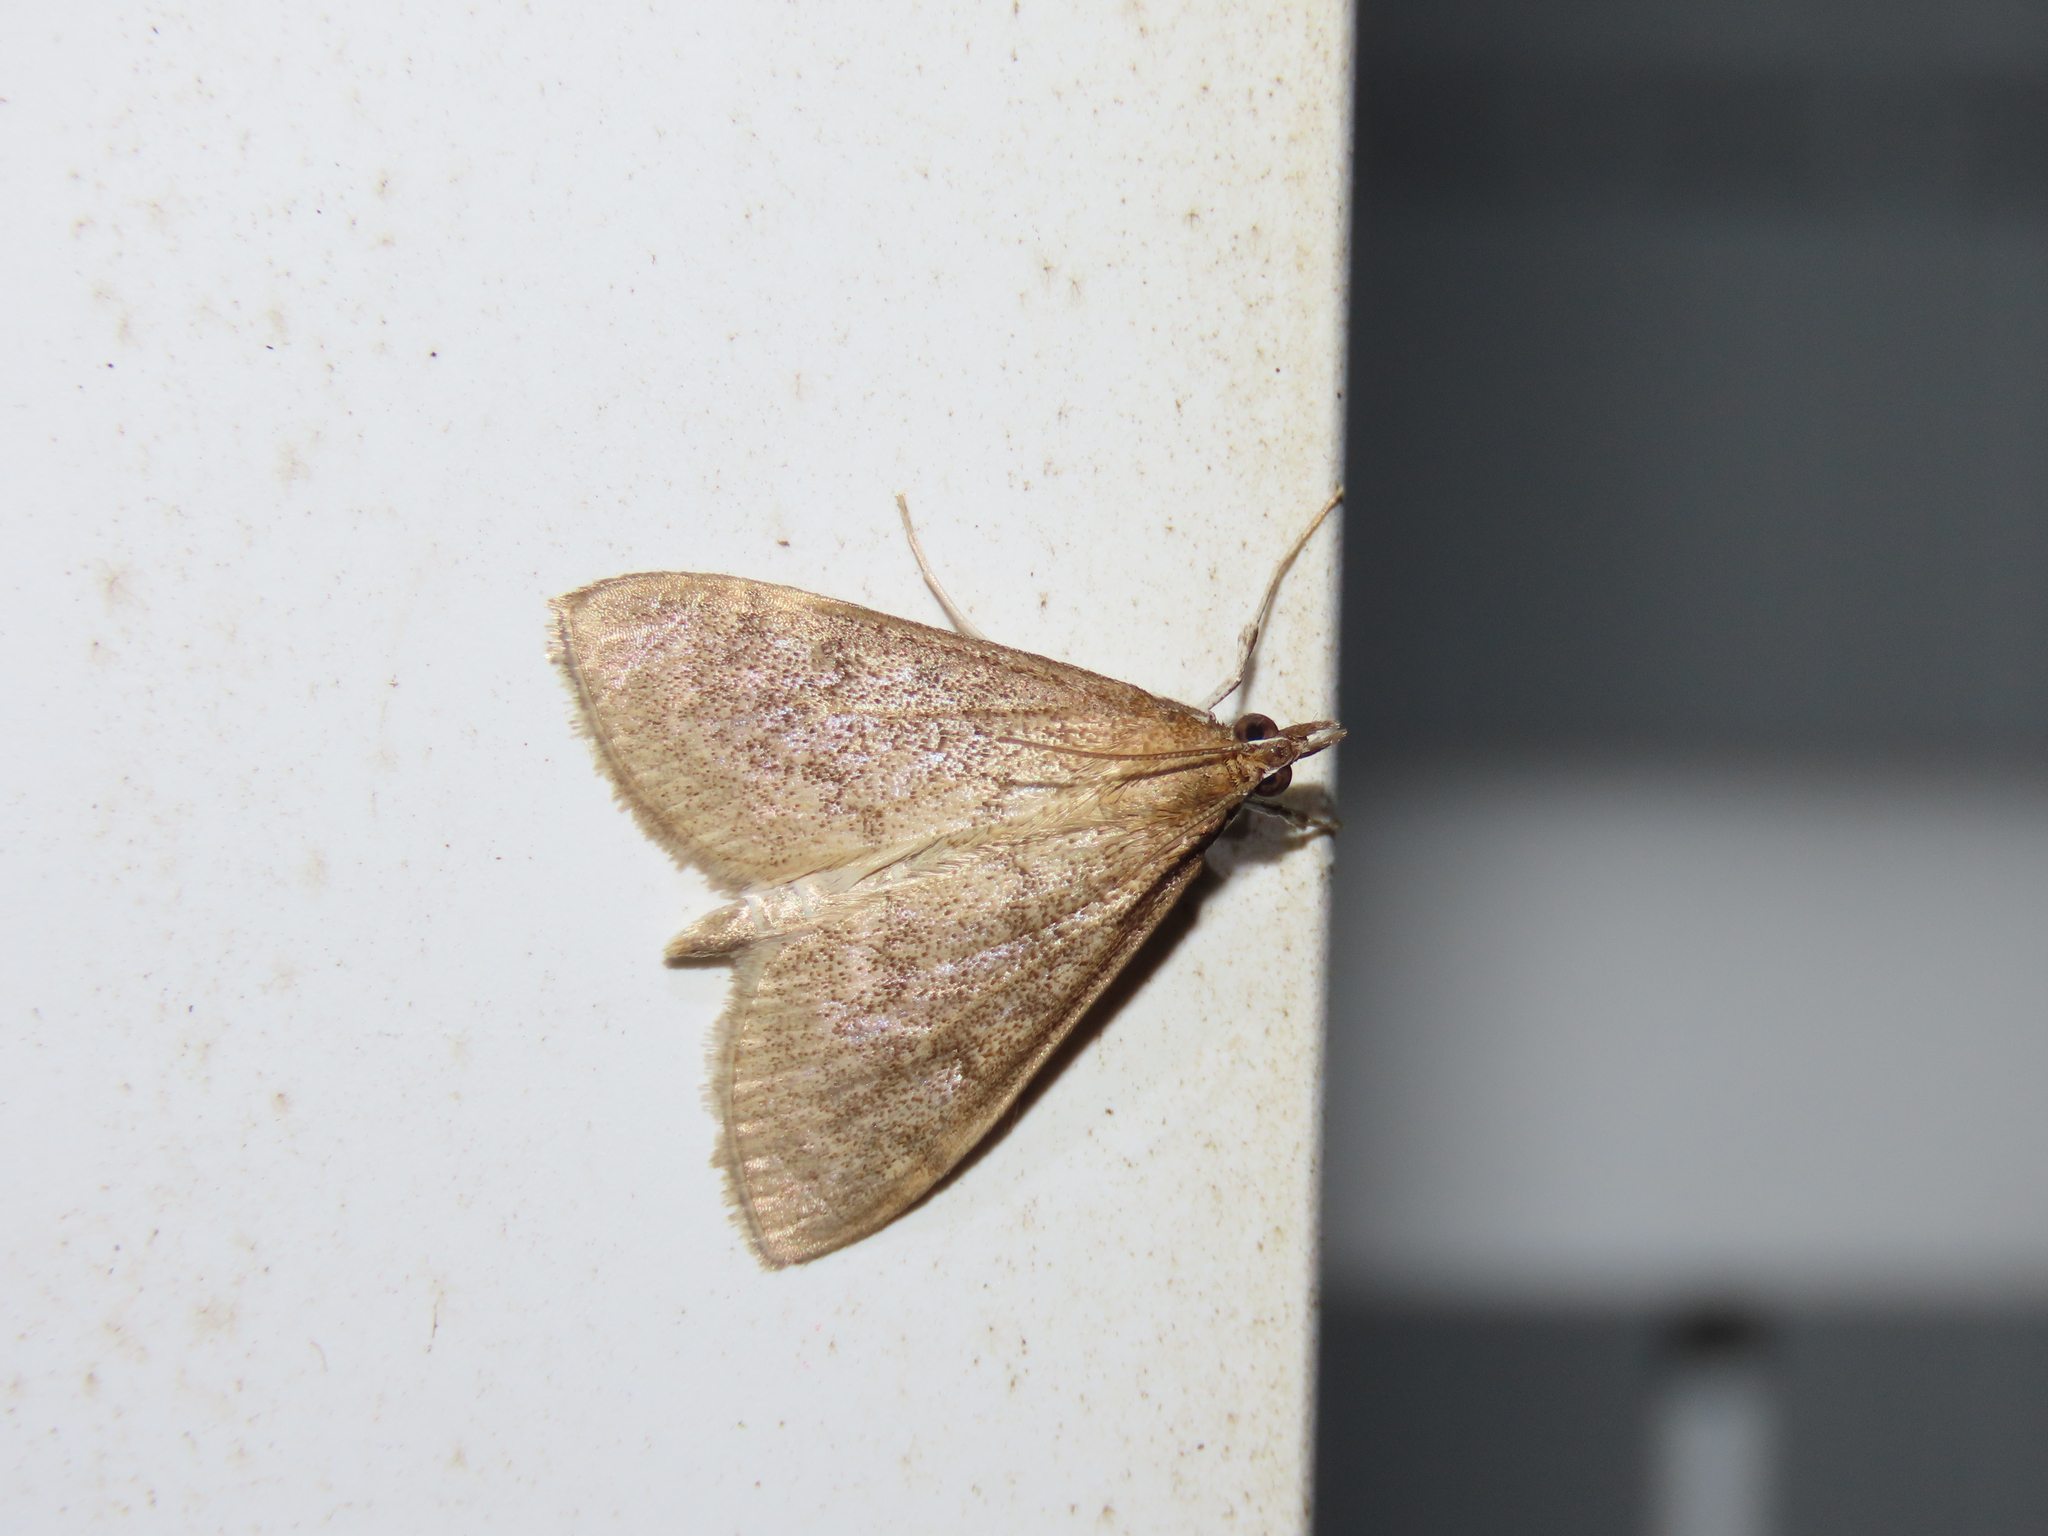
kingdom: Animalia
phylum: Arthropoda
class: Insecta
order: Lepidoptera
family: Crambidae
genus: Saucrobotys
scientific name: Saucrobotys futilalis
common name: Dogbane saucrobotys moth
